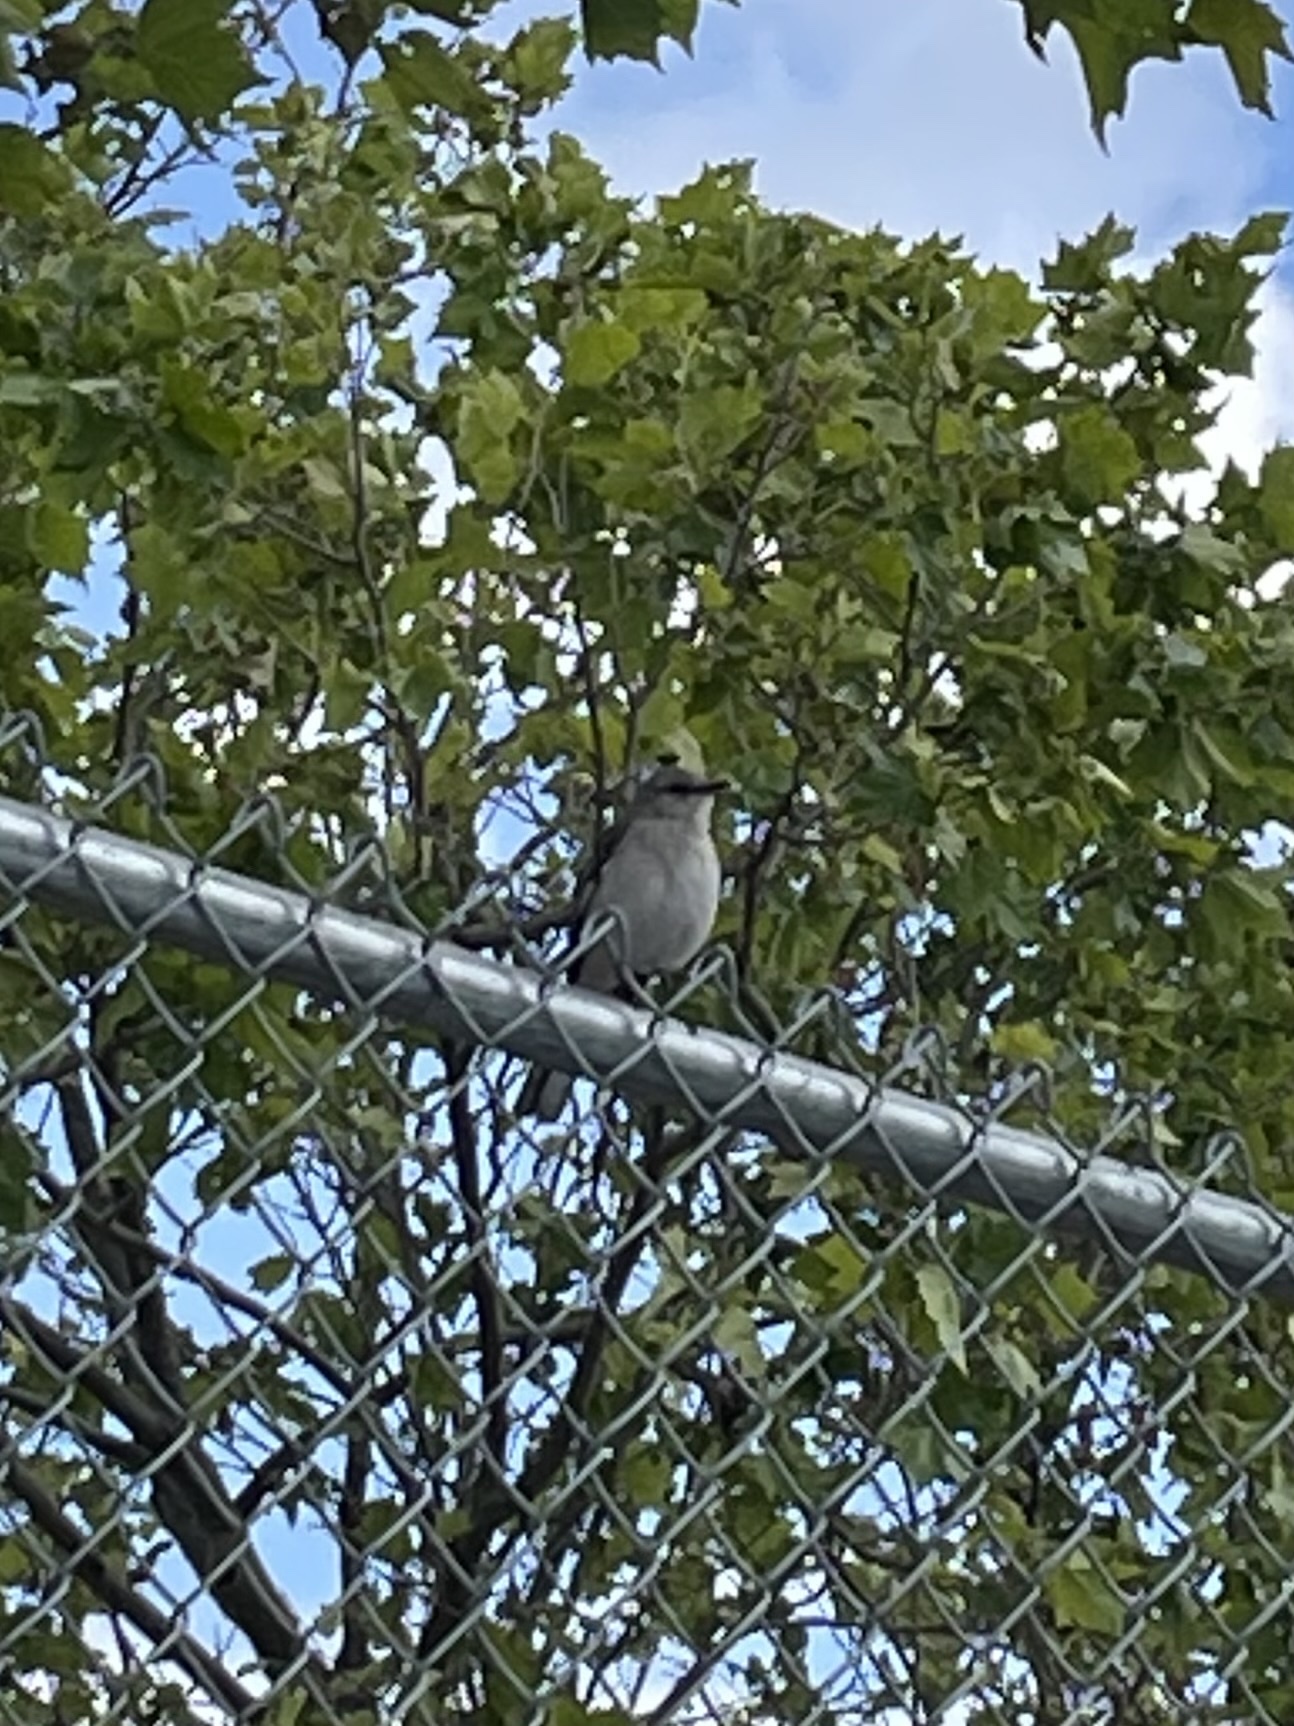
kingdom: Animalia
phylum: Chordata
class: Aves
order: Passeriformes
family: Mimidae
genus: Mimus
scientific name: Mimus polyglottos
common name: Northern mockingbird
